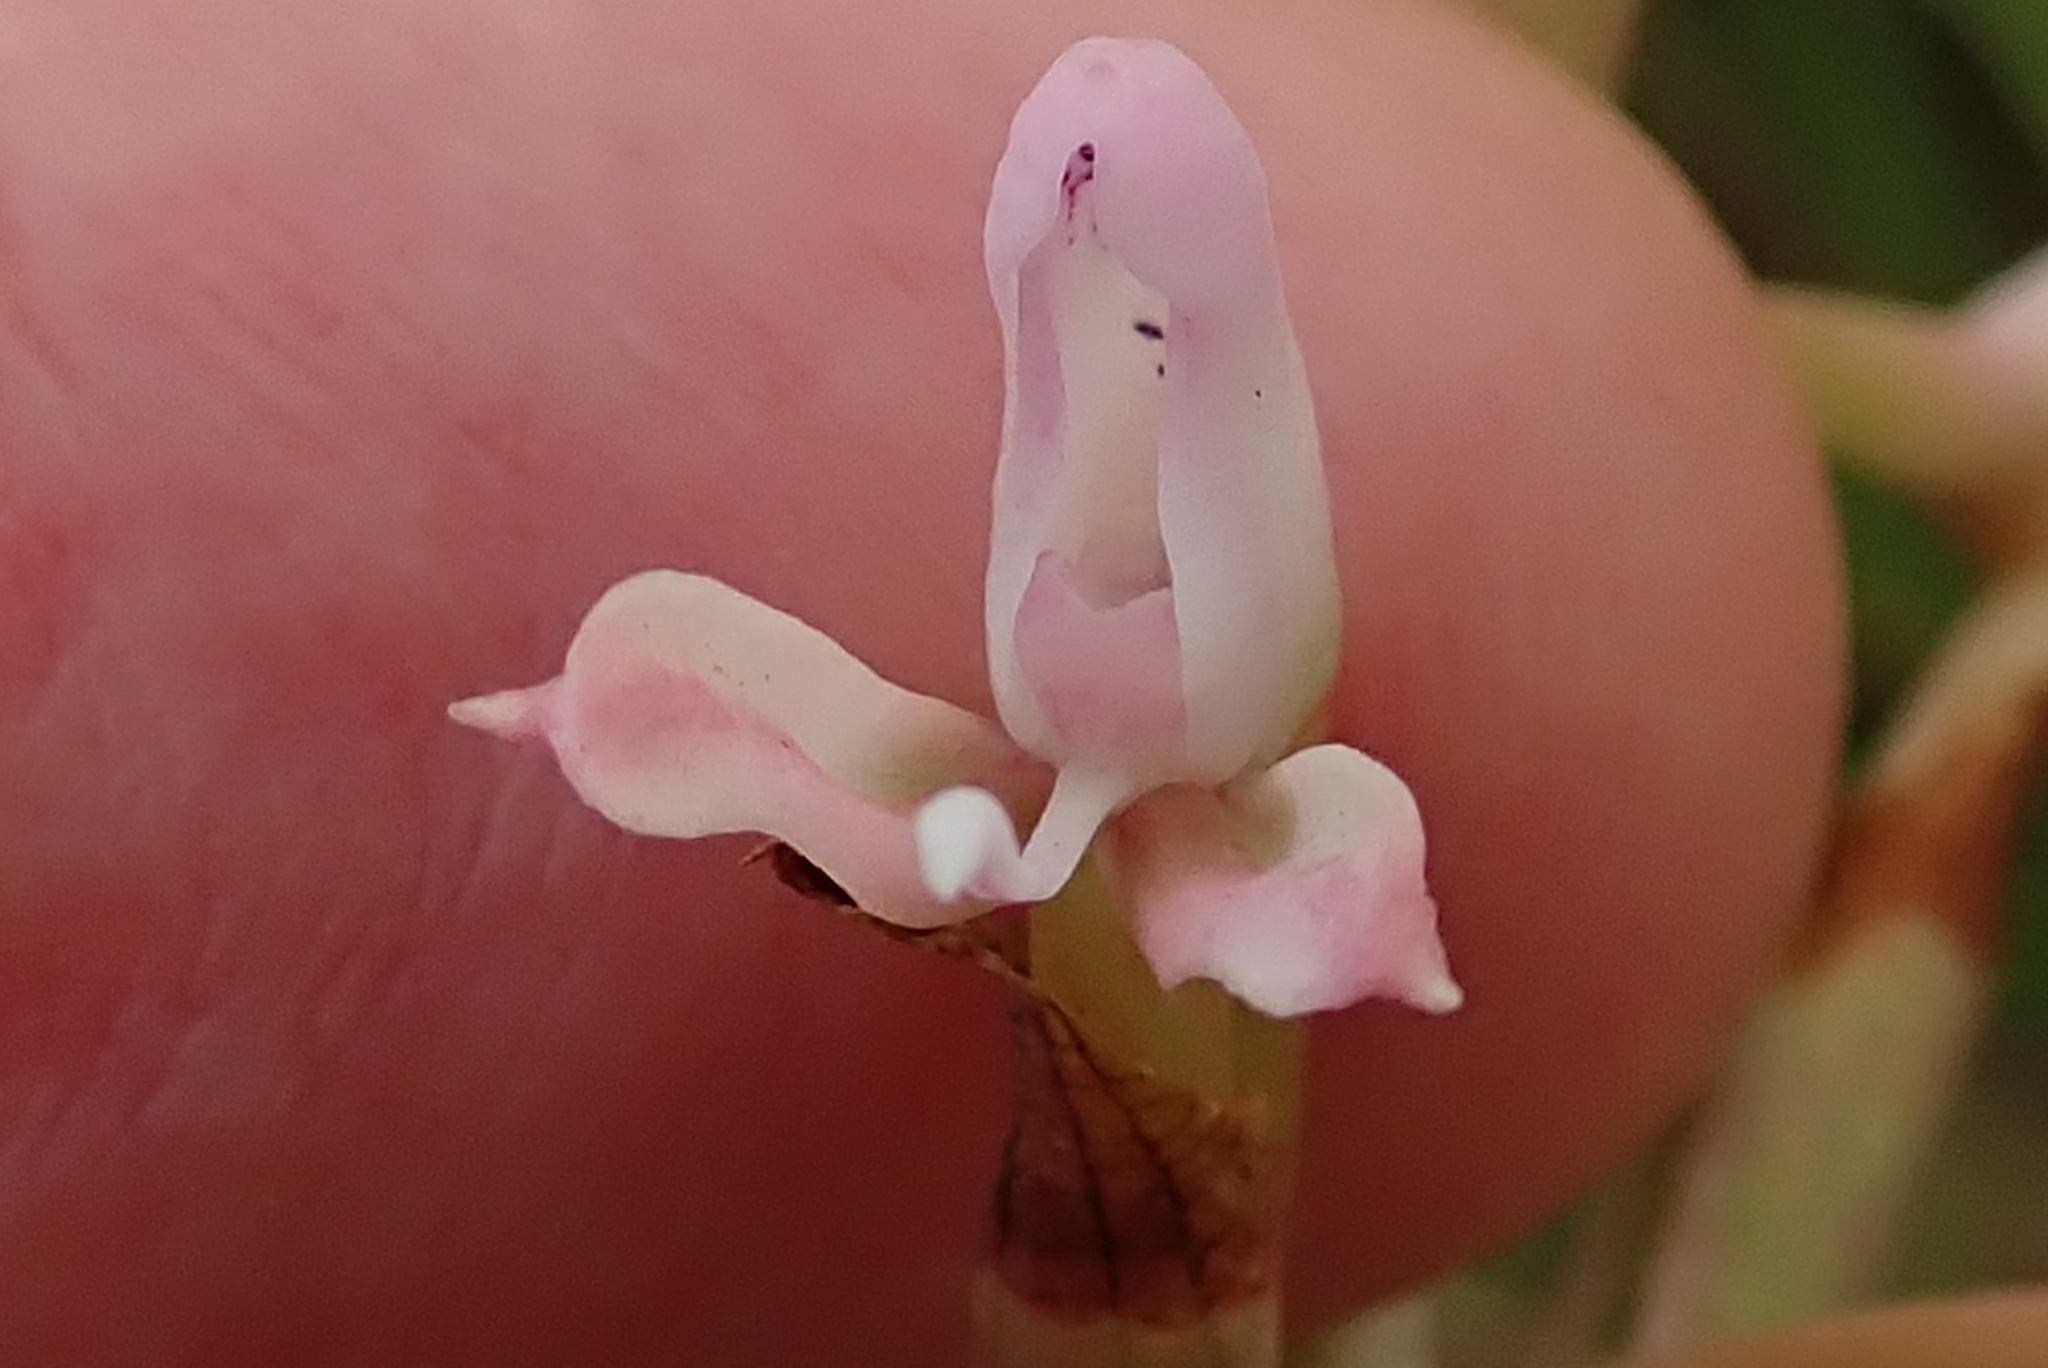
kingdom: Plantae
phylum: Tracheophyta
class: Liliopsida
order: Asparagales
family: Orchidaceae
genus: Disa
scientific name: Disa patula
